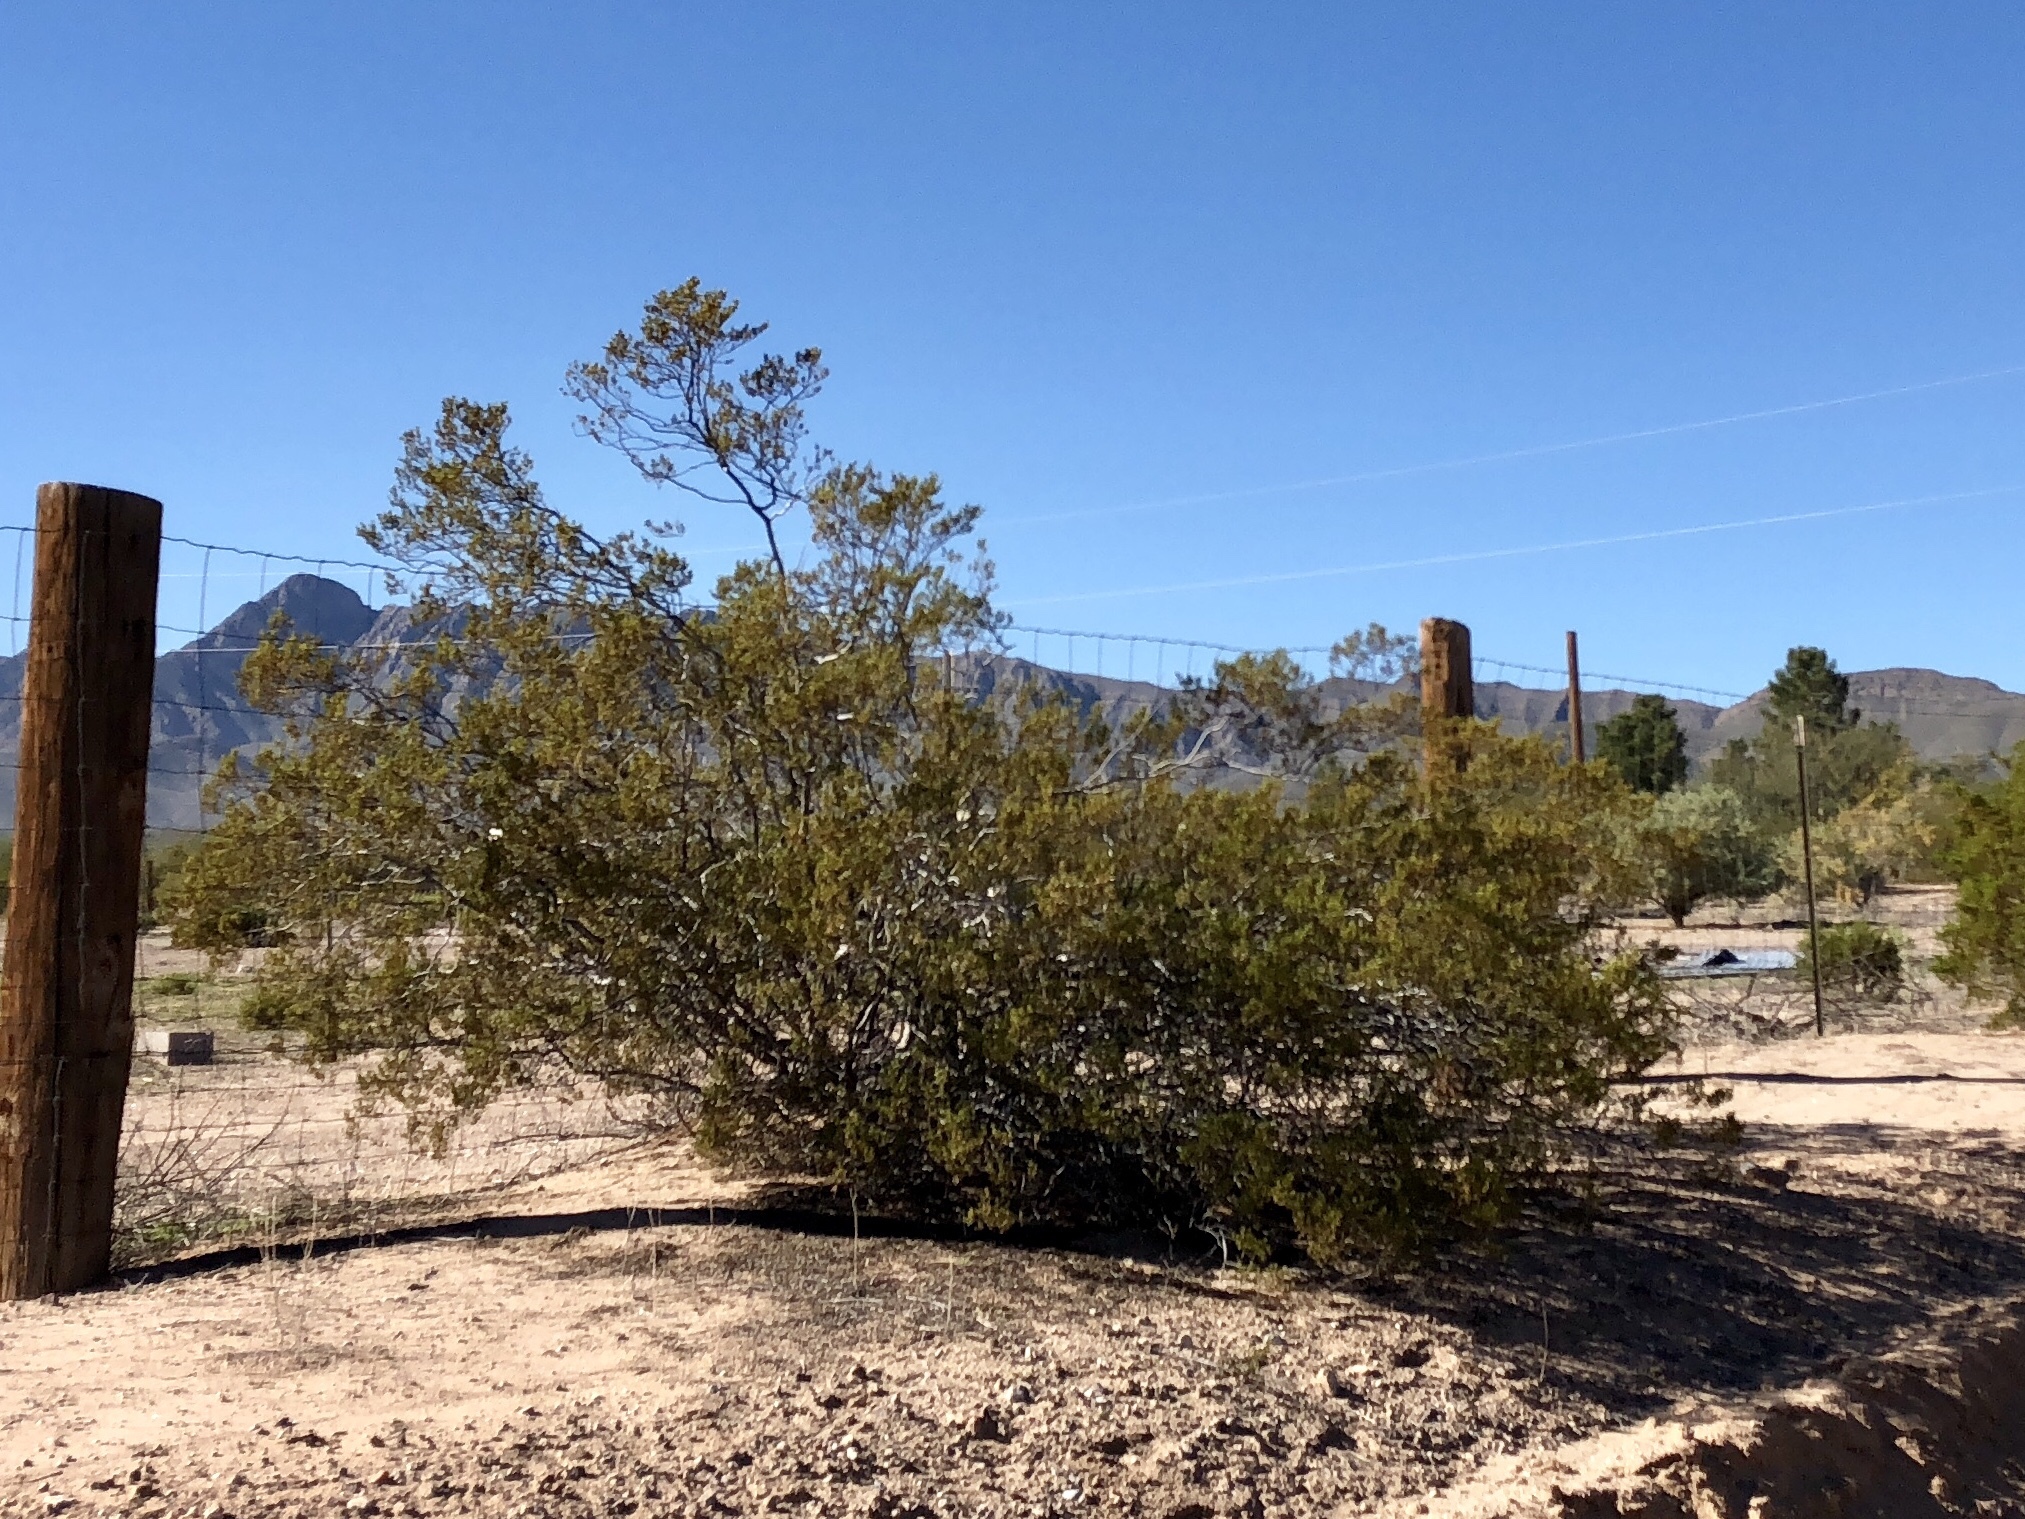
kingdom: Plantae
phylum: Tracheophyta
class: Magnoliopsida
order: Zygophyllales
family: Zygophyllaceae
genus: Larrea
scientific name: Larrea tridentata
